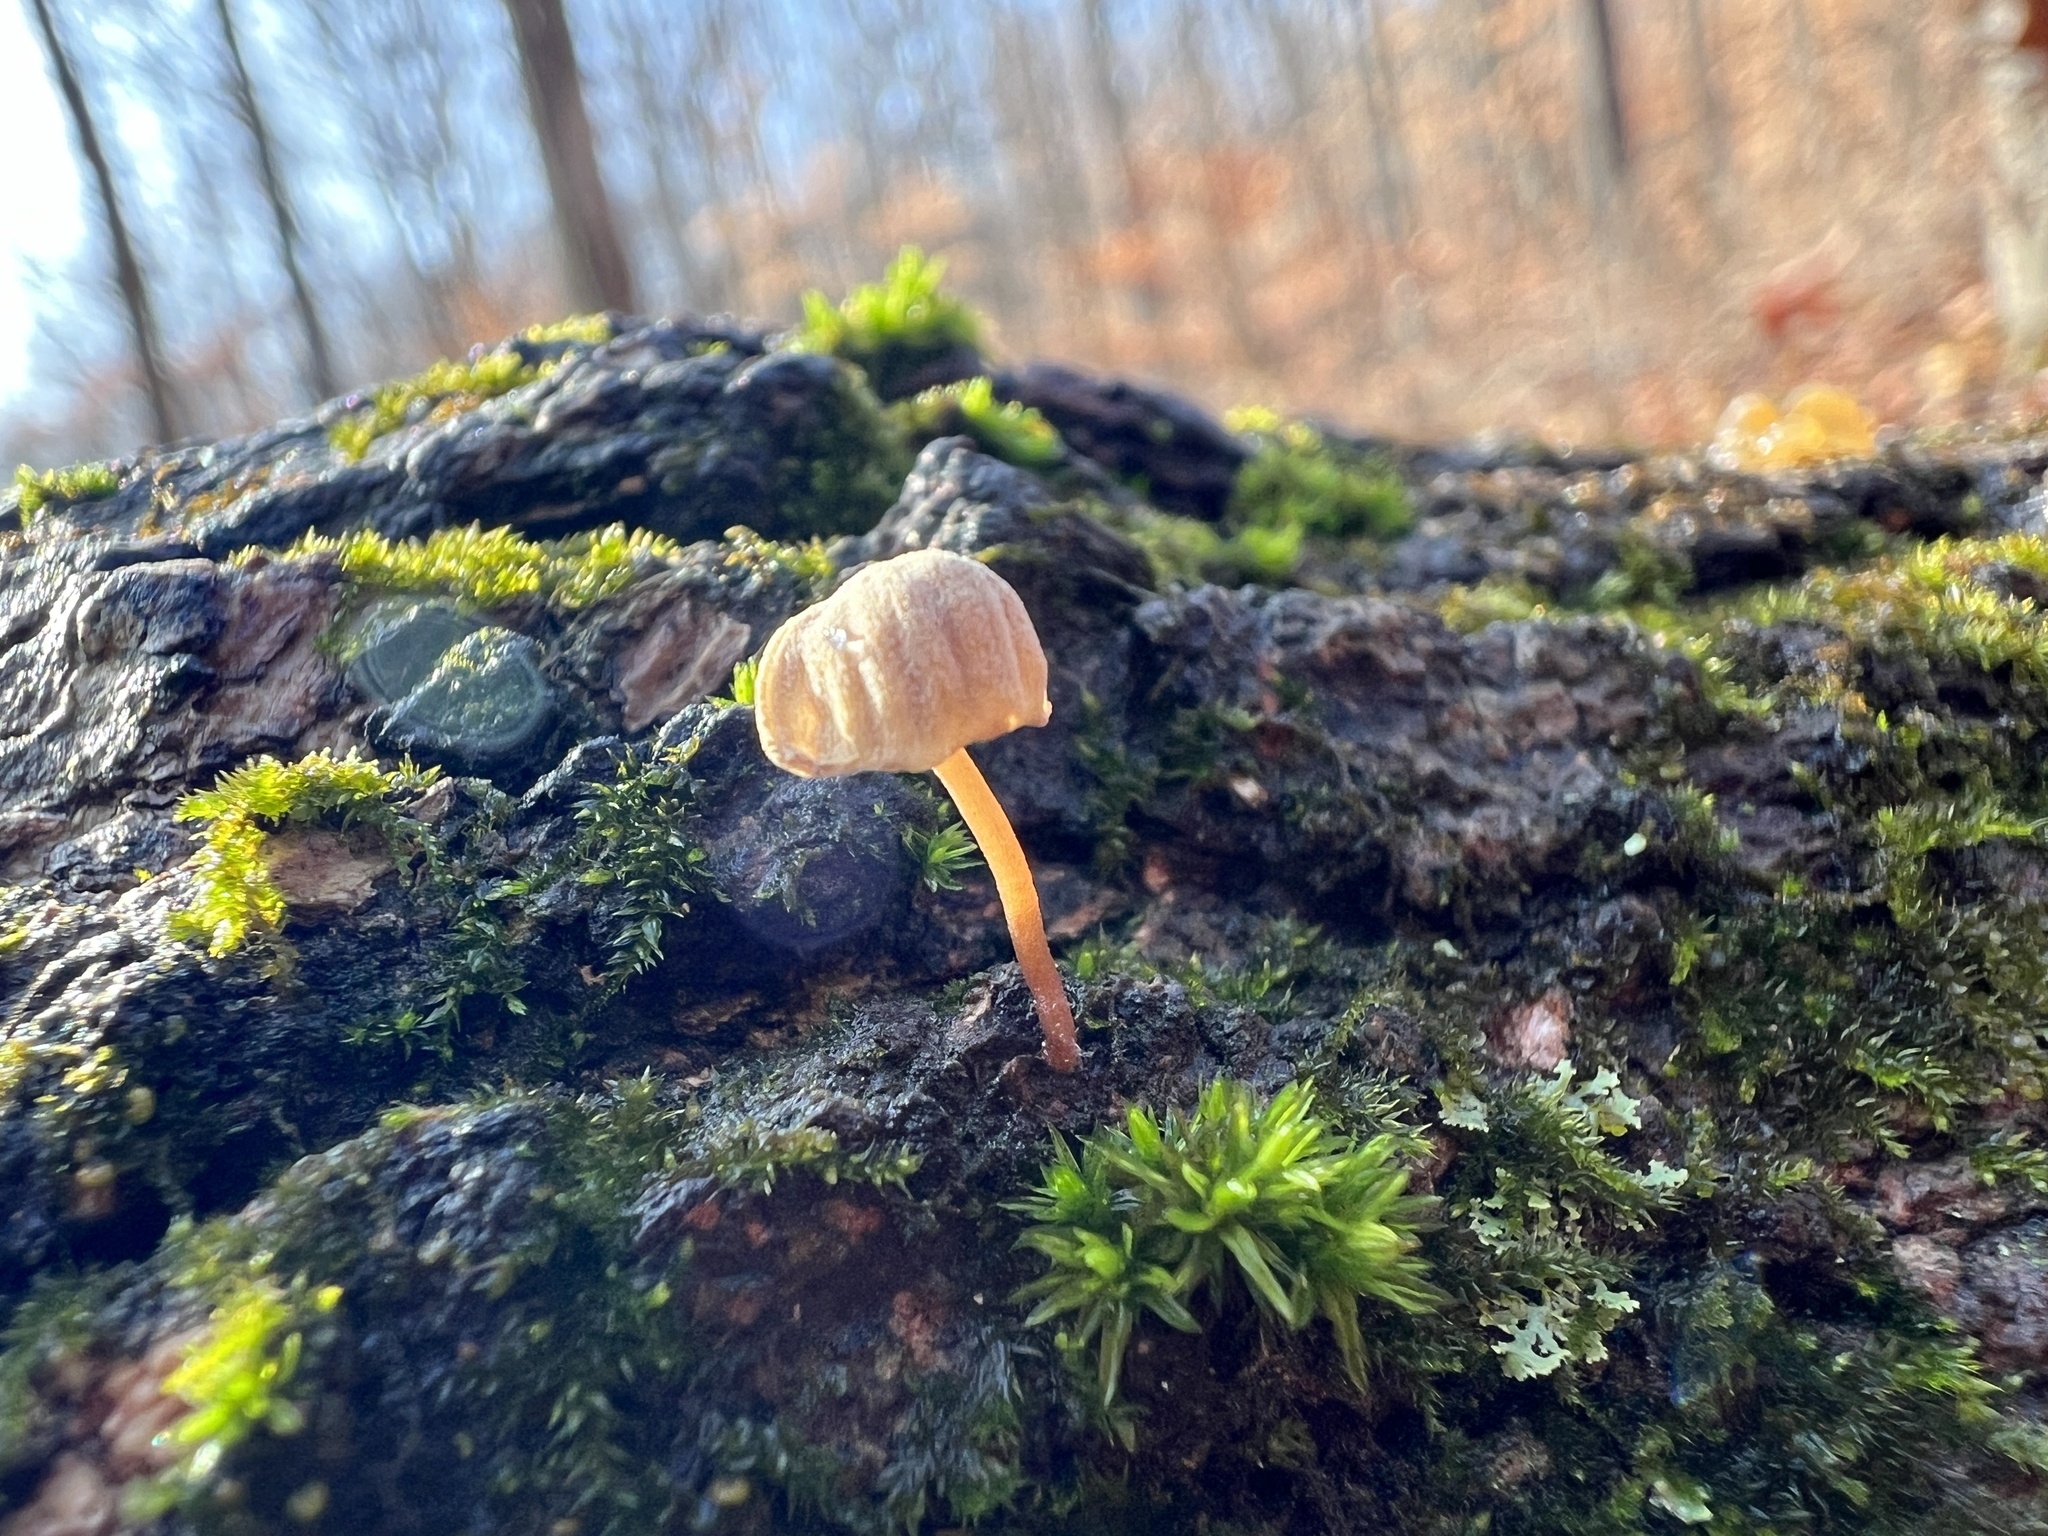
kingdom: Fungi
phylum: Basidiomycota
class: Agaricomycetes
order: Agaricales
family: Mycenaceae
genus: Mycena
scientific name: Mycena meliigena
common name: Mauve bonnet
